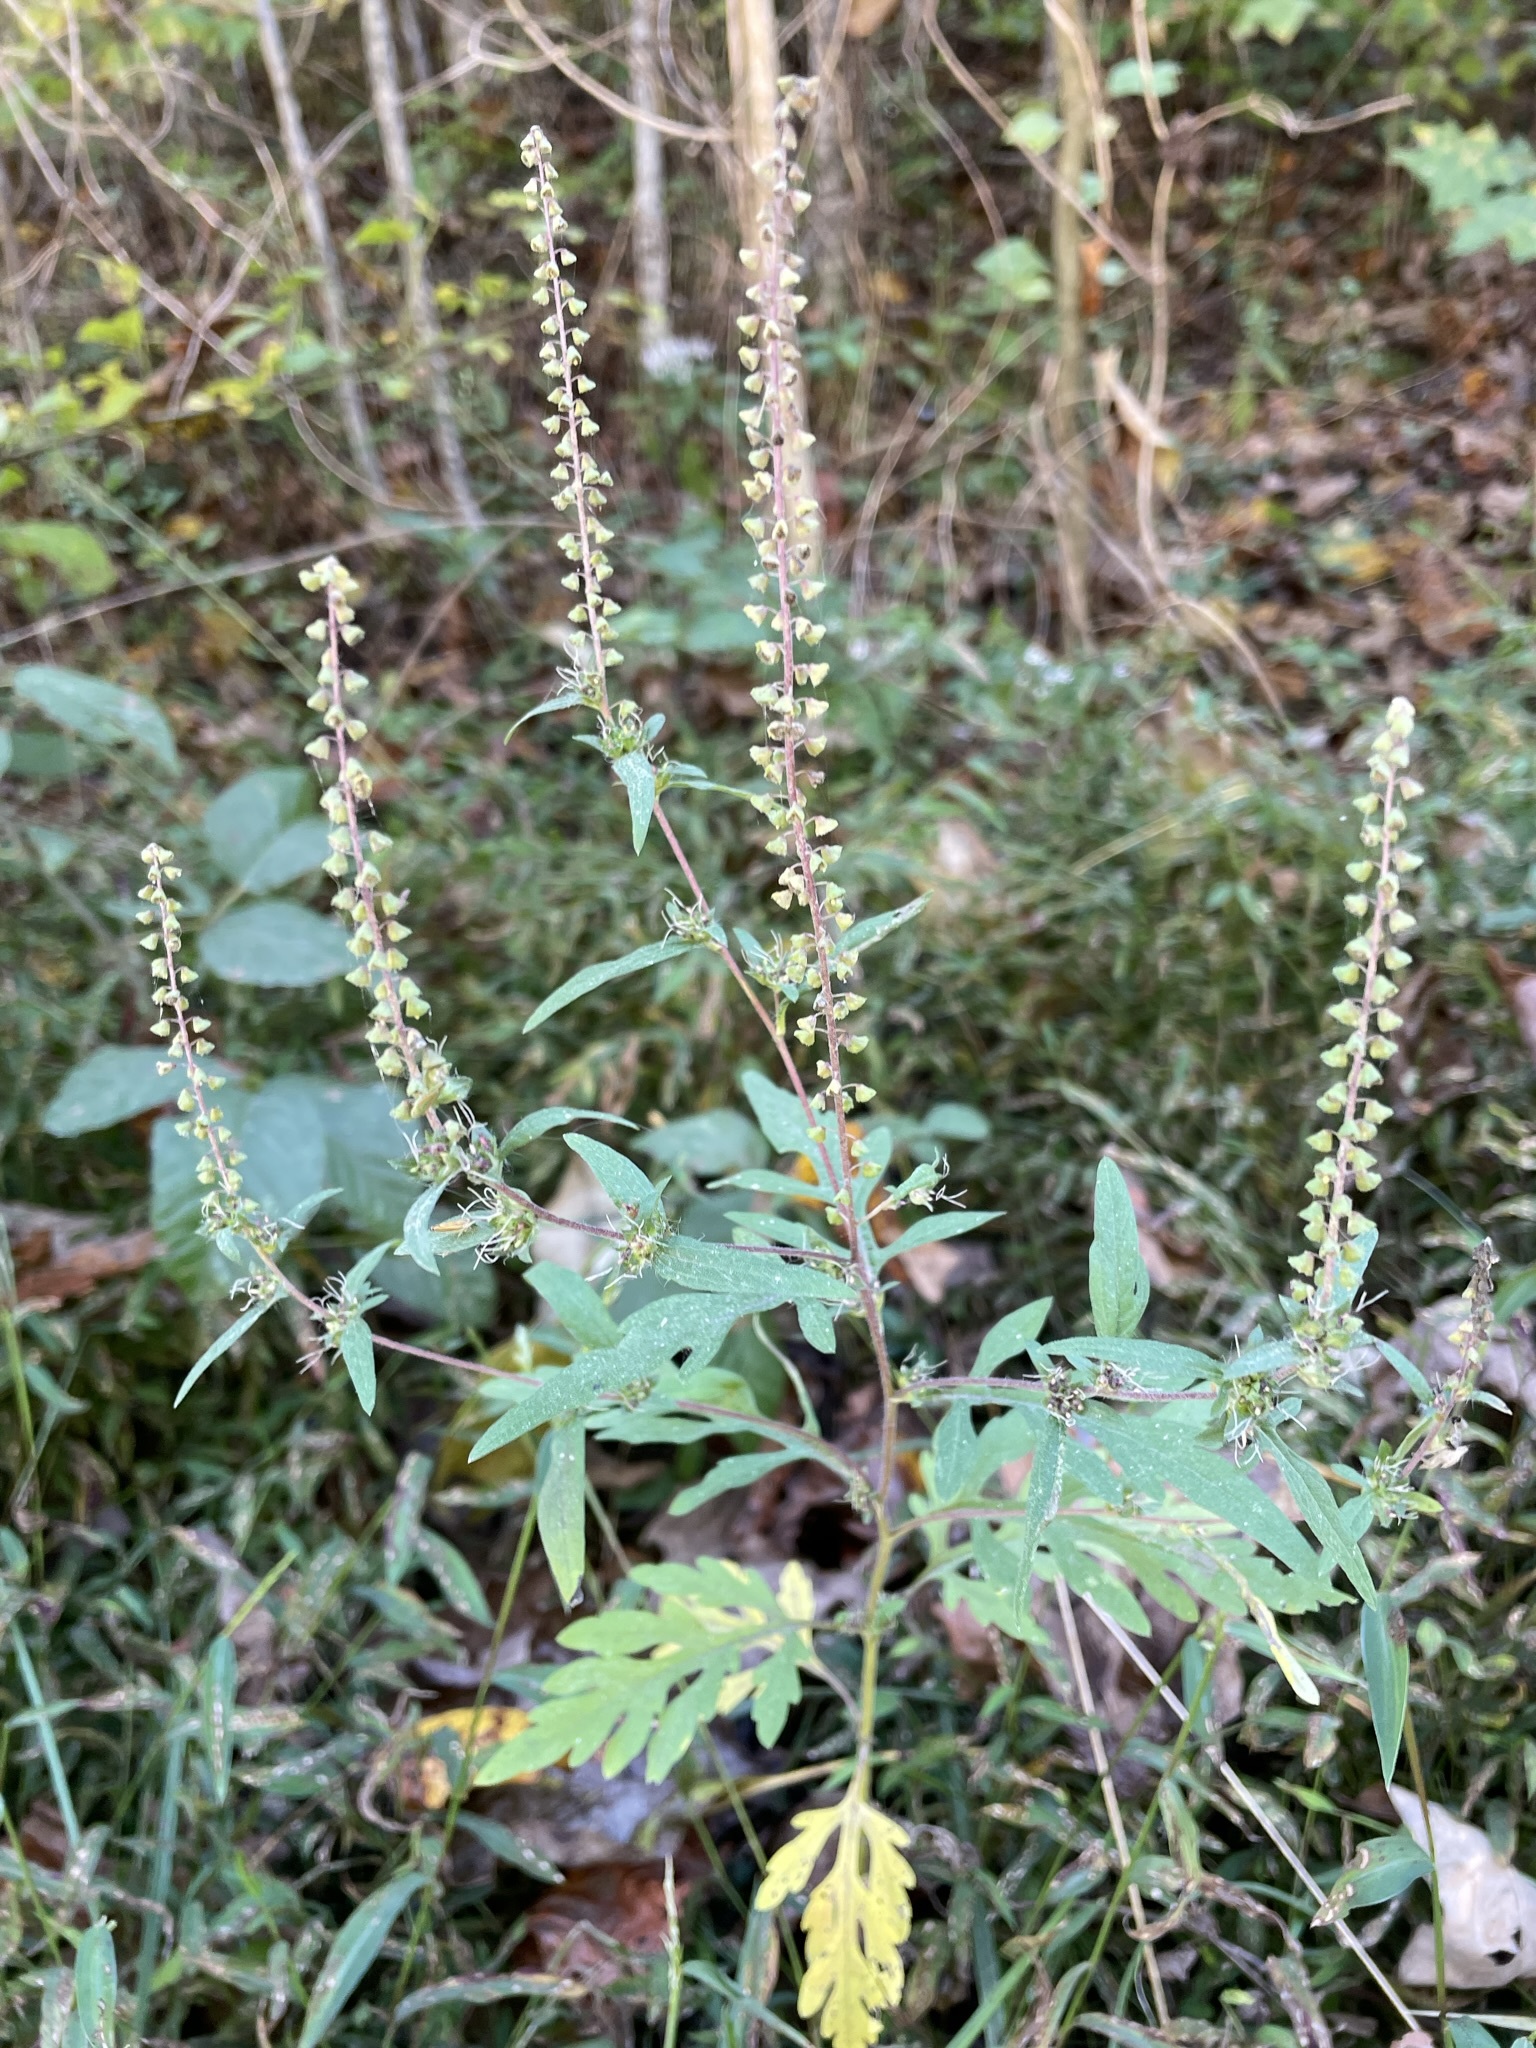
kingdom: Plantae
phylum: Tracheophyta
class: Magnoliopsida
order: Asterales
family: Asteraceae
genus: Ambrosia
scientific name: Ambrosia artemisiifolia
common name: Annual ragweed
